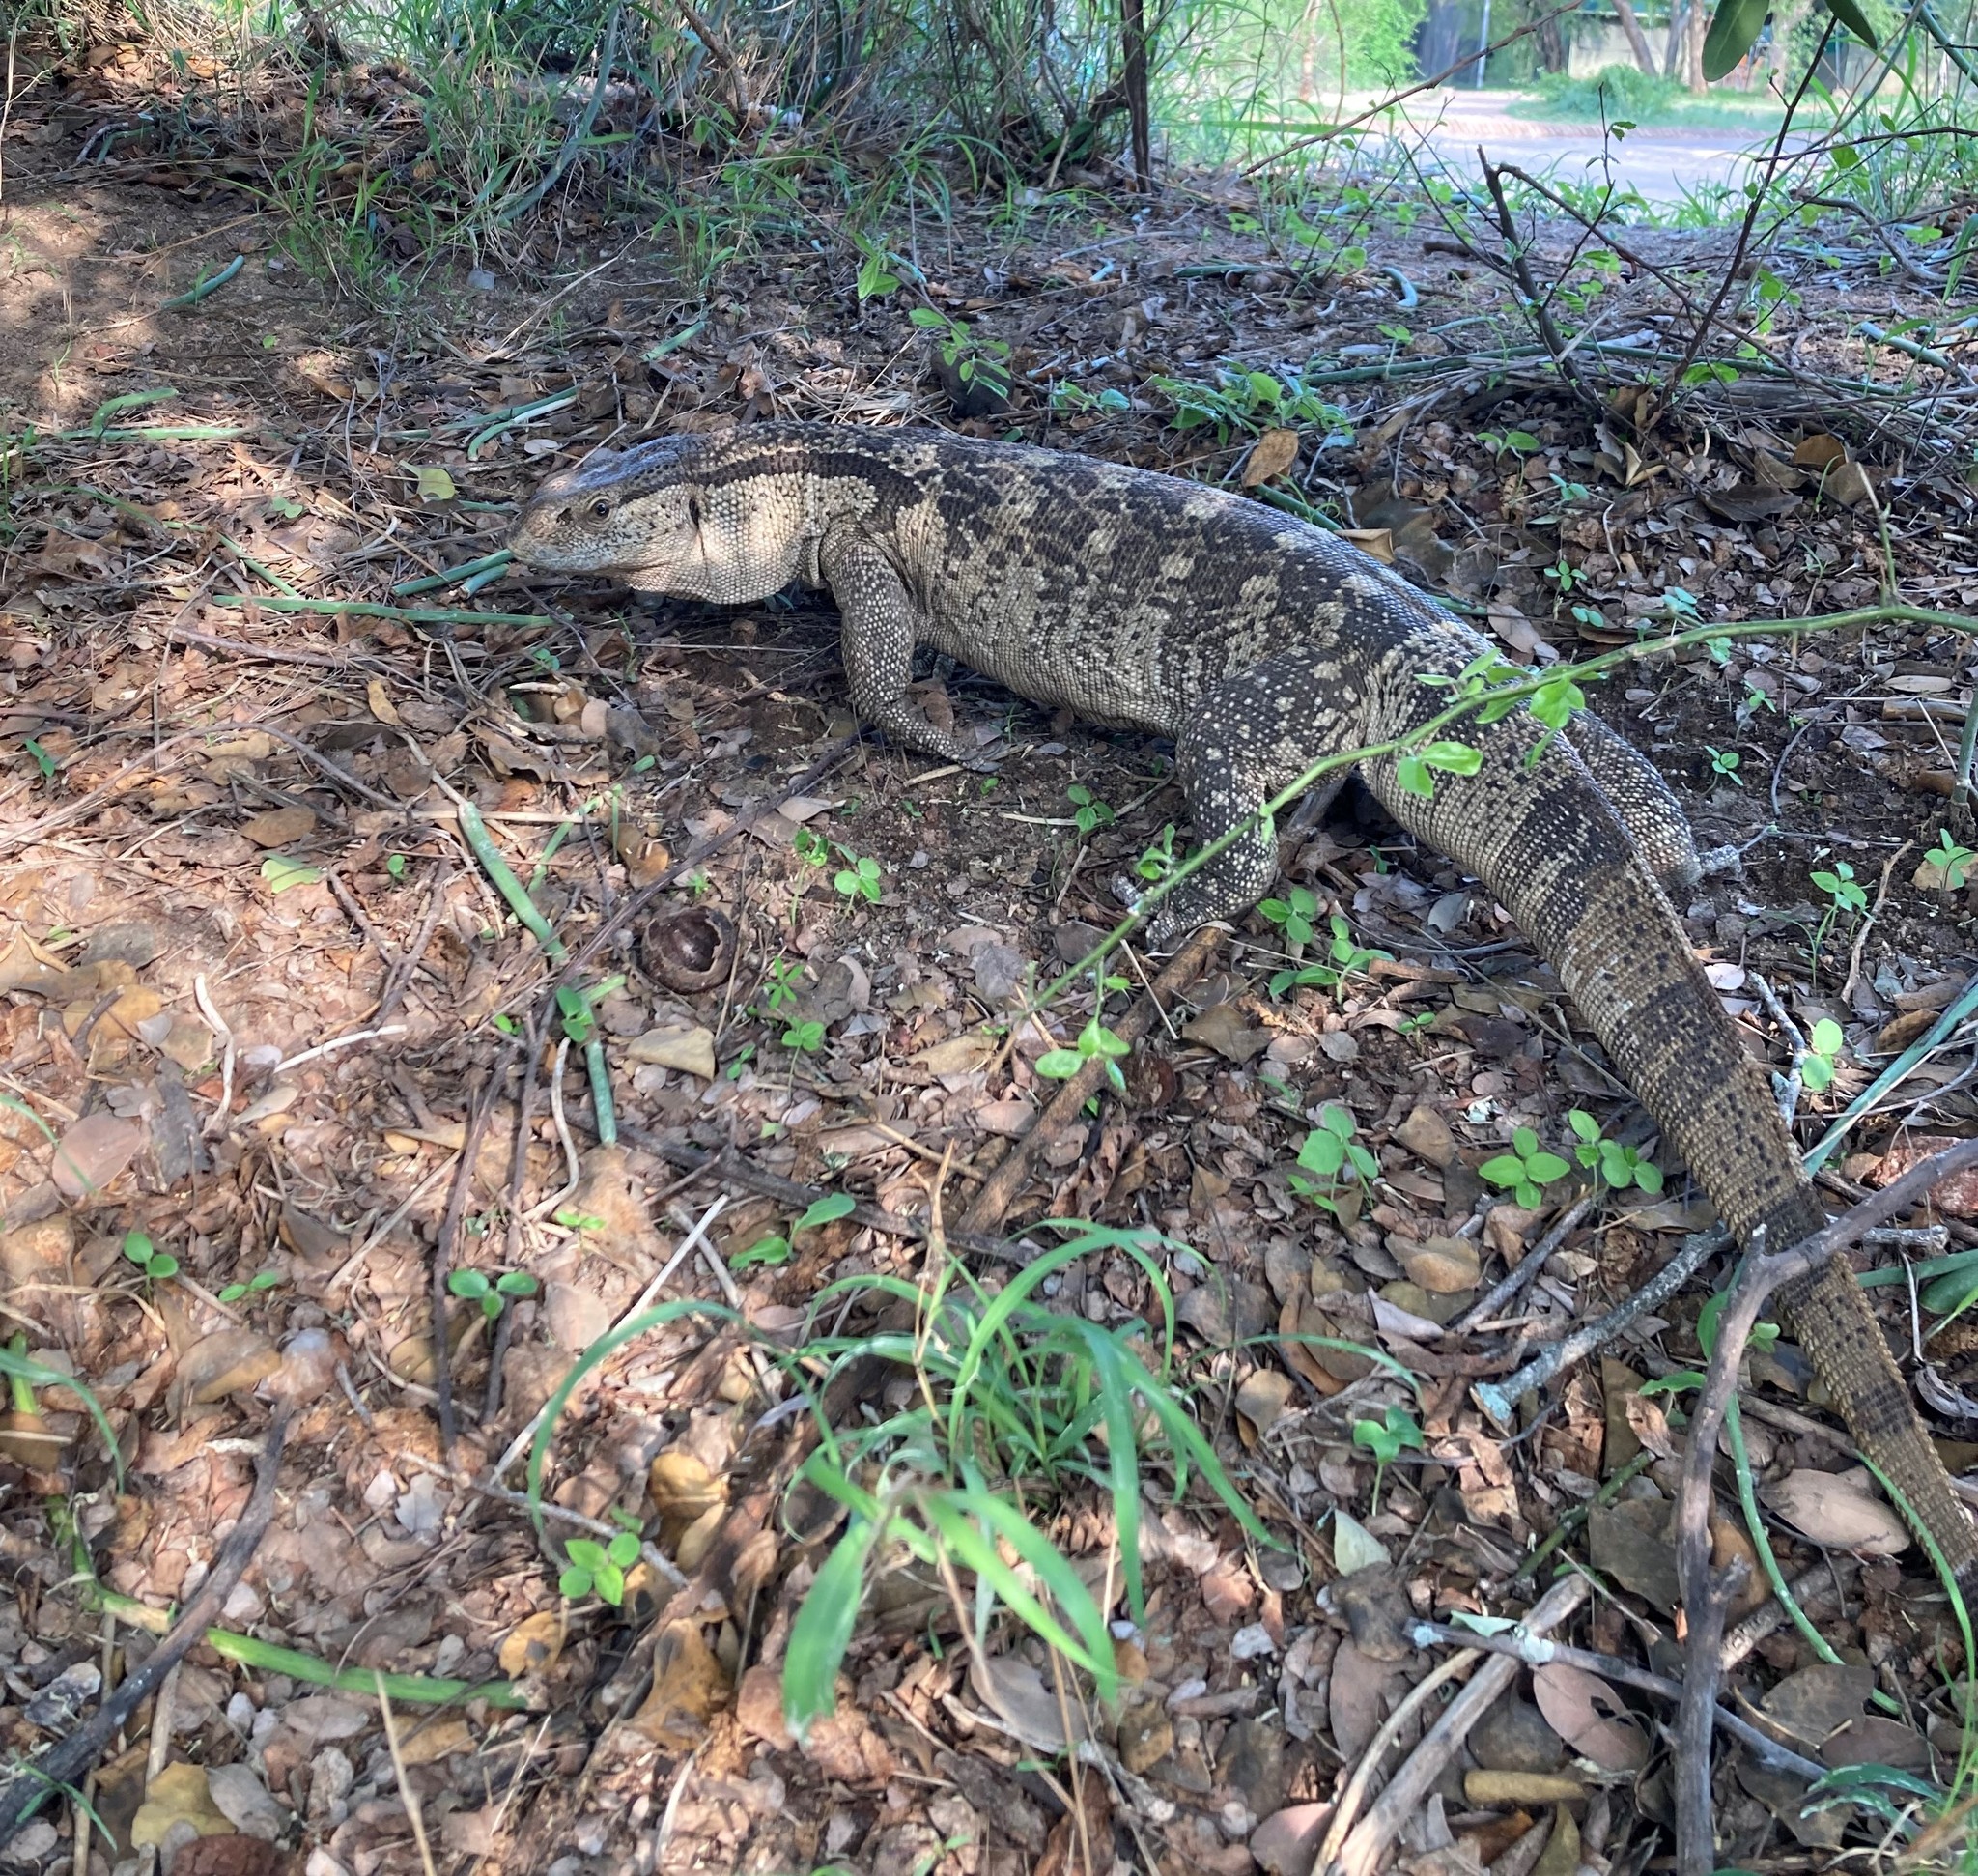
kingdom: Animalia
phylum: Chordata
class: Squamata
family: Varanidae
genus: Varanus
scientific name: Varanus albigularis
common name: White-throated monitor
